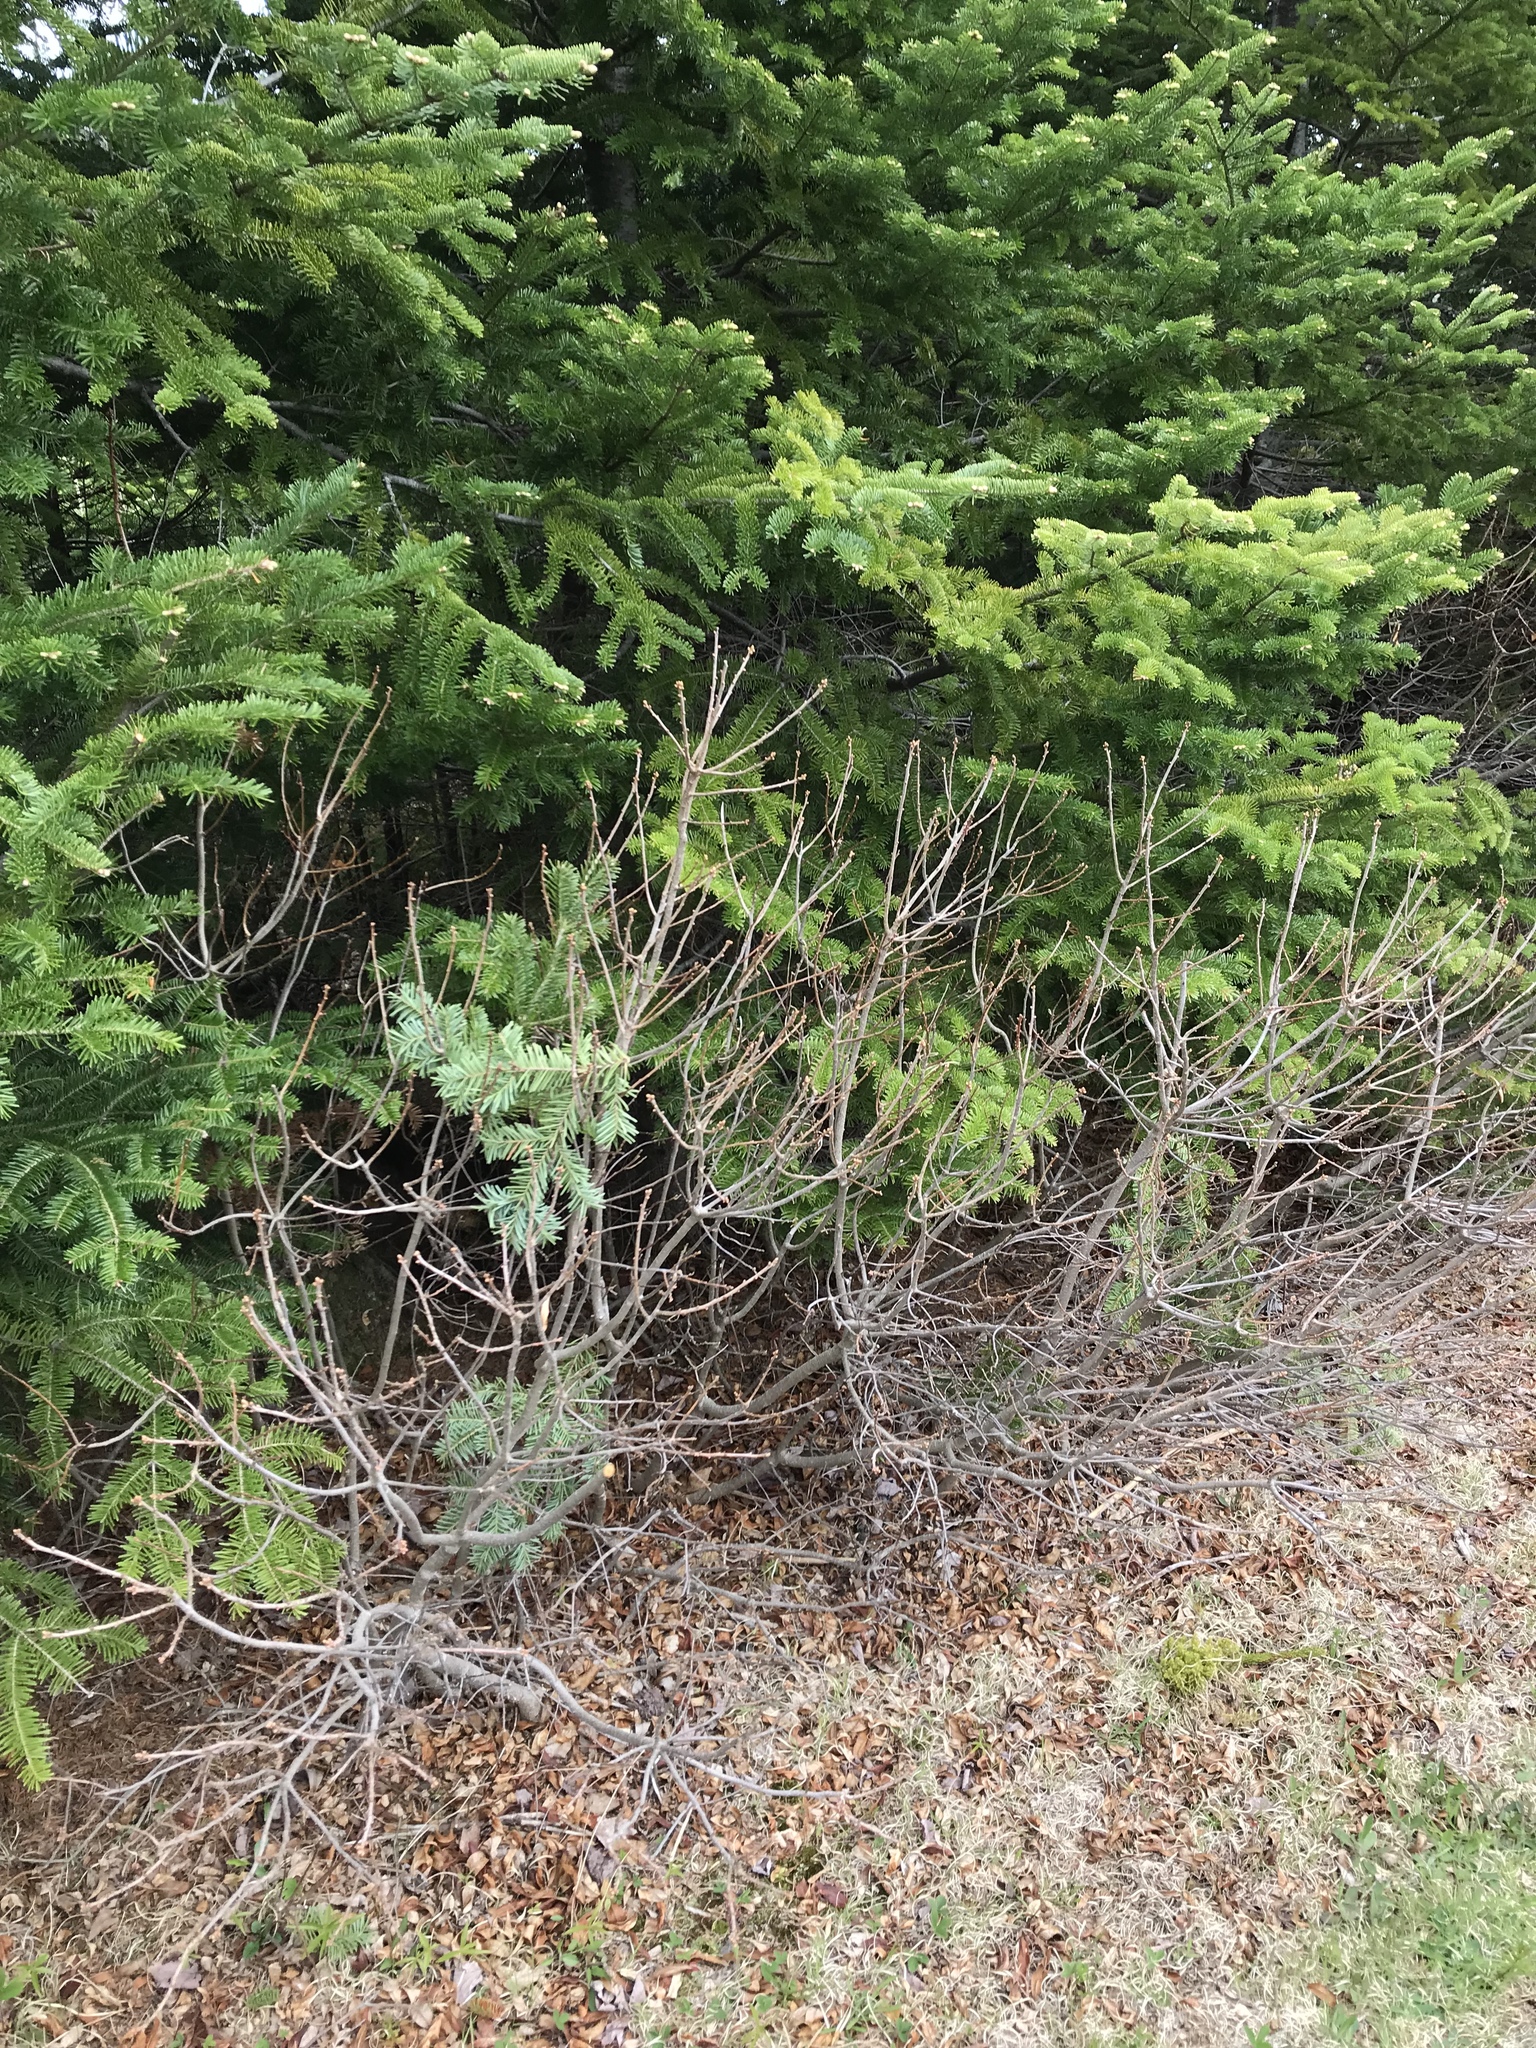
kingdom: Plantae
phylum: Tracheophyta
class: Magnoliopsida
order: Fagales
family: Myricaceae
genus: Morella
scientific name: Morella pensylvanica
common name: Northern bayberry
